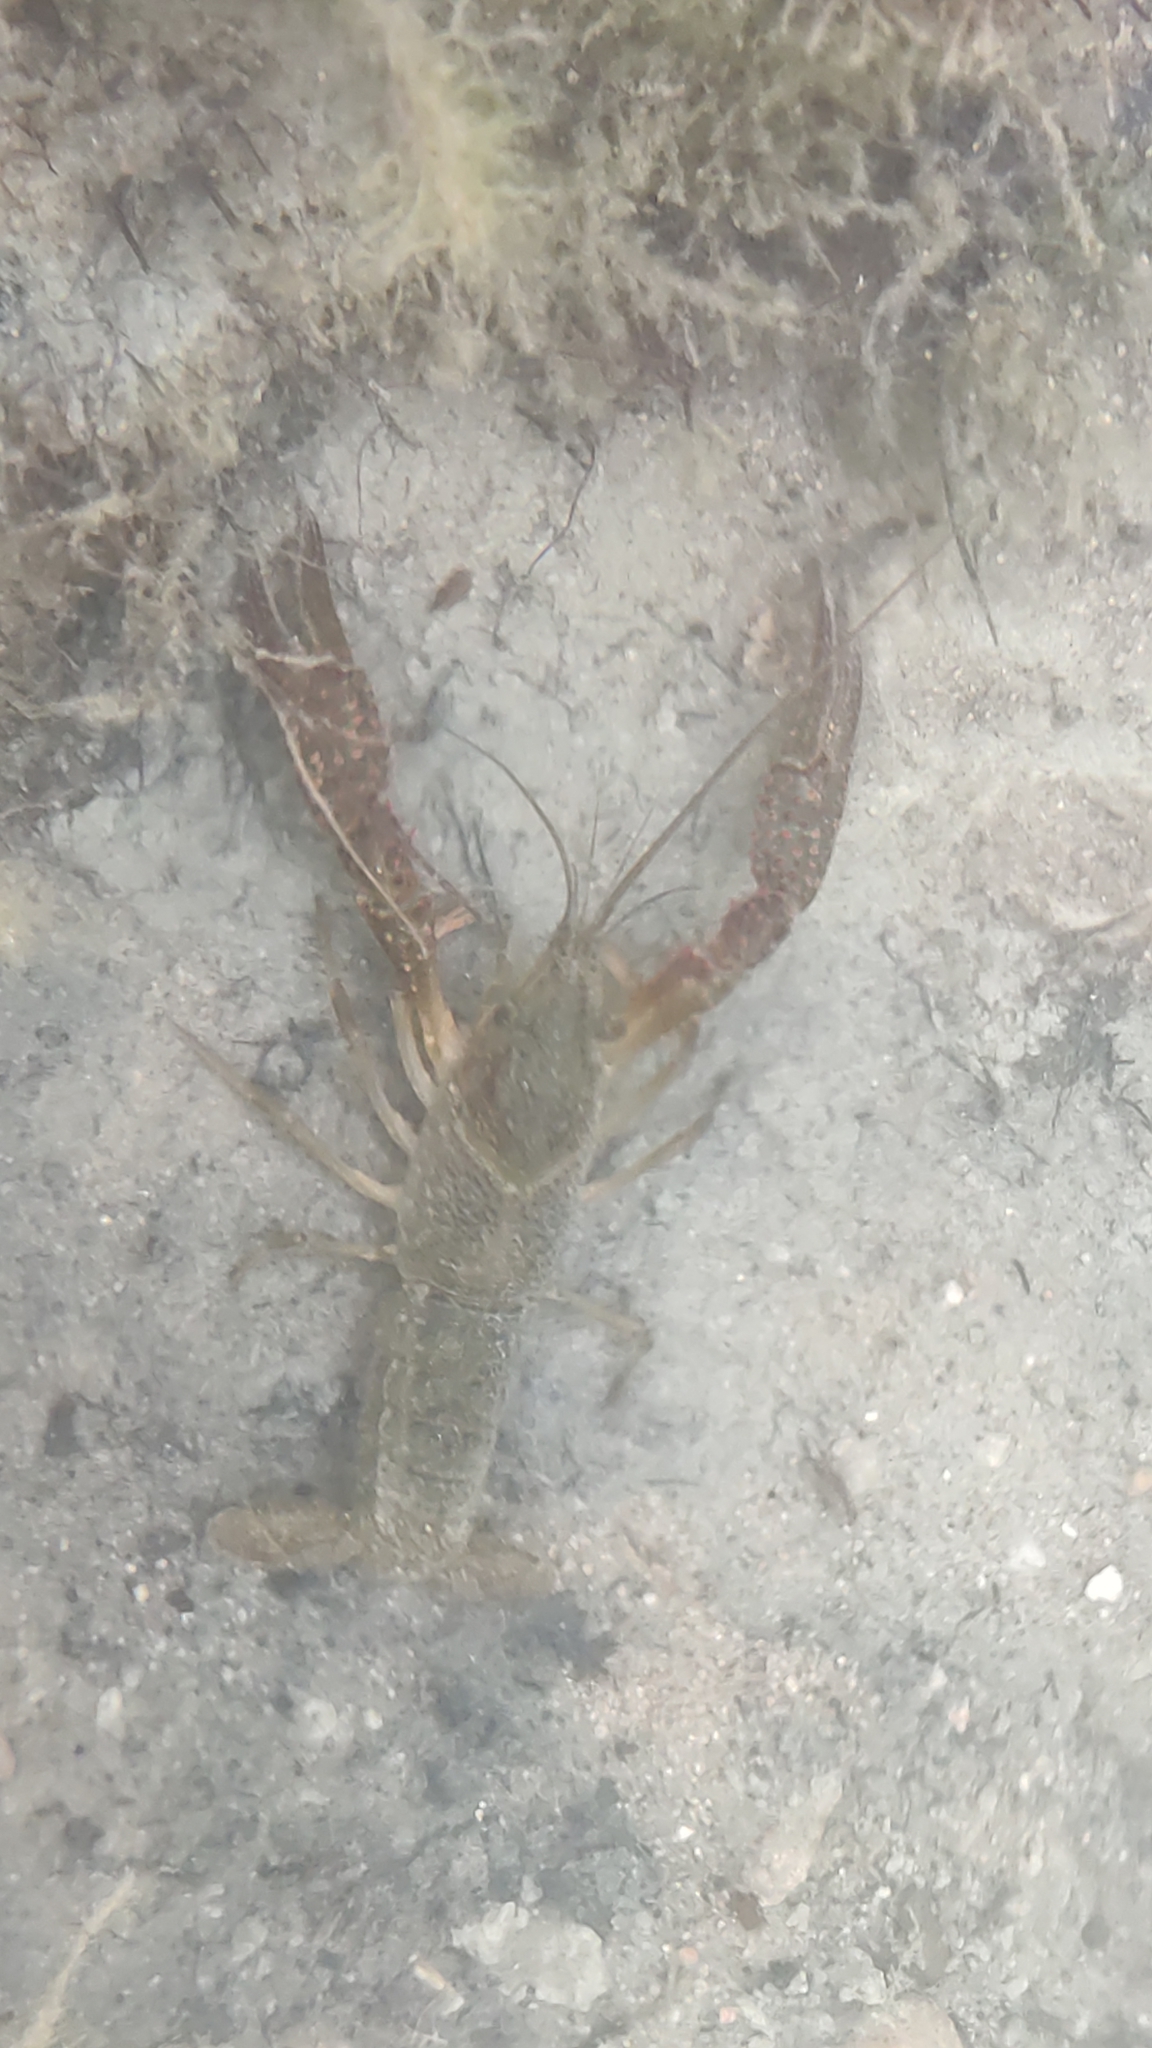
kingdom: Animalia
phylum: Arthropoda
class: Malacostraca
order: Decapoda
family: Cambaridae
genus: Procambarus
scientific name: Procambarus clarkii
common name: Red swamp crayfish
